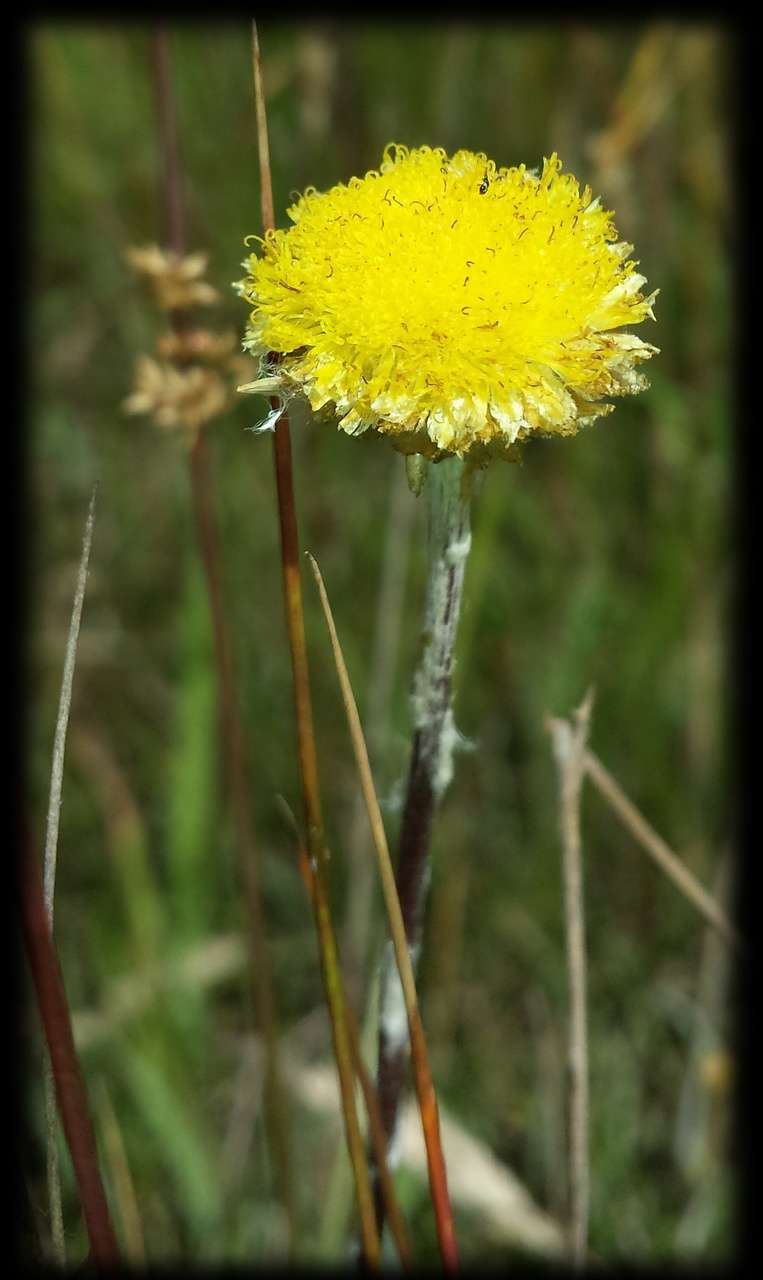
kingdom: Plantae
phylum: Tracheophyta
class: Magnoliopsida
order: Asterales
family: Asteraceae
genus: Coronidium
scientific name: Coronidium gunnianum
